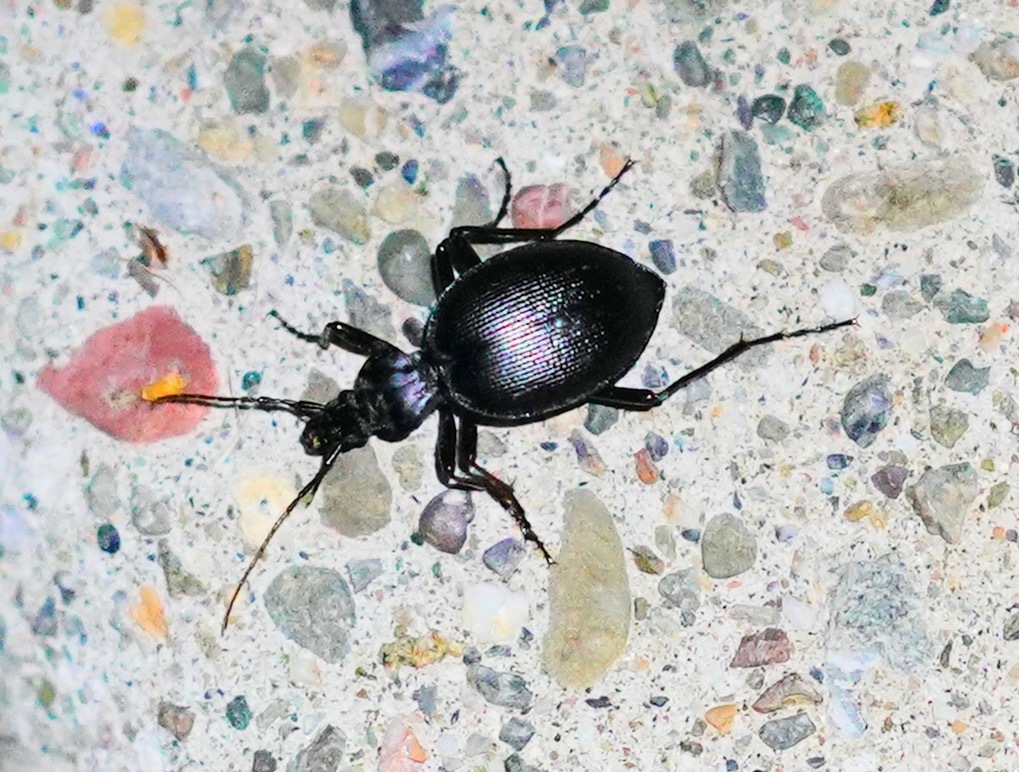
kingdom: Animalia
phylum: Arthropoda
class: Insecta
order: Coleoptera
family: Carabidae
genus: Scaphinotus
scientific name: Scaphinotus interruptus
